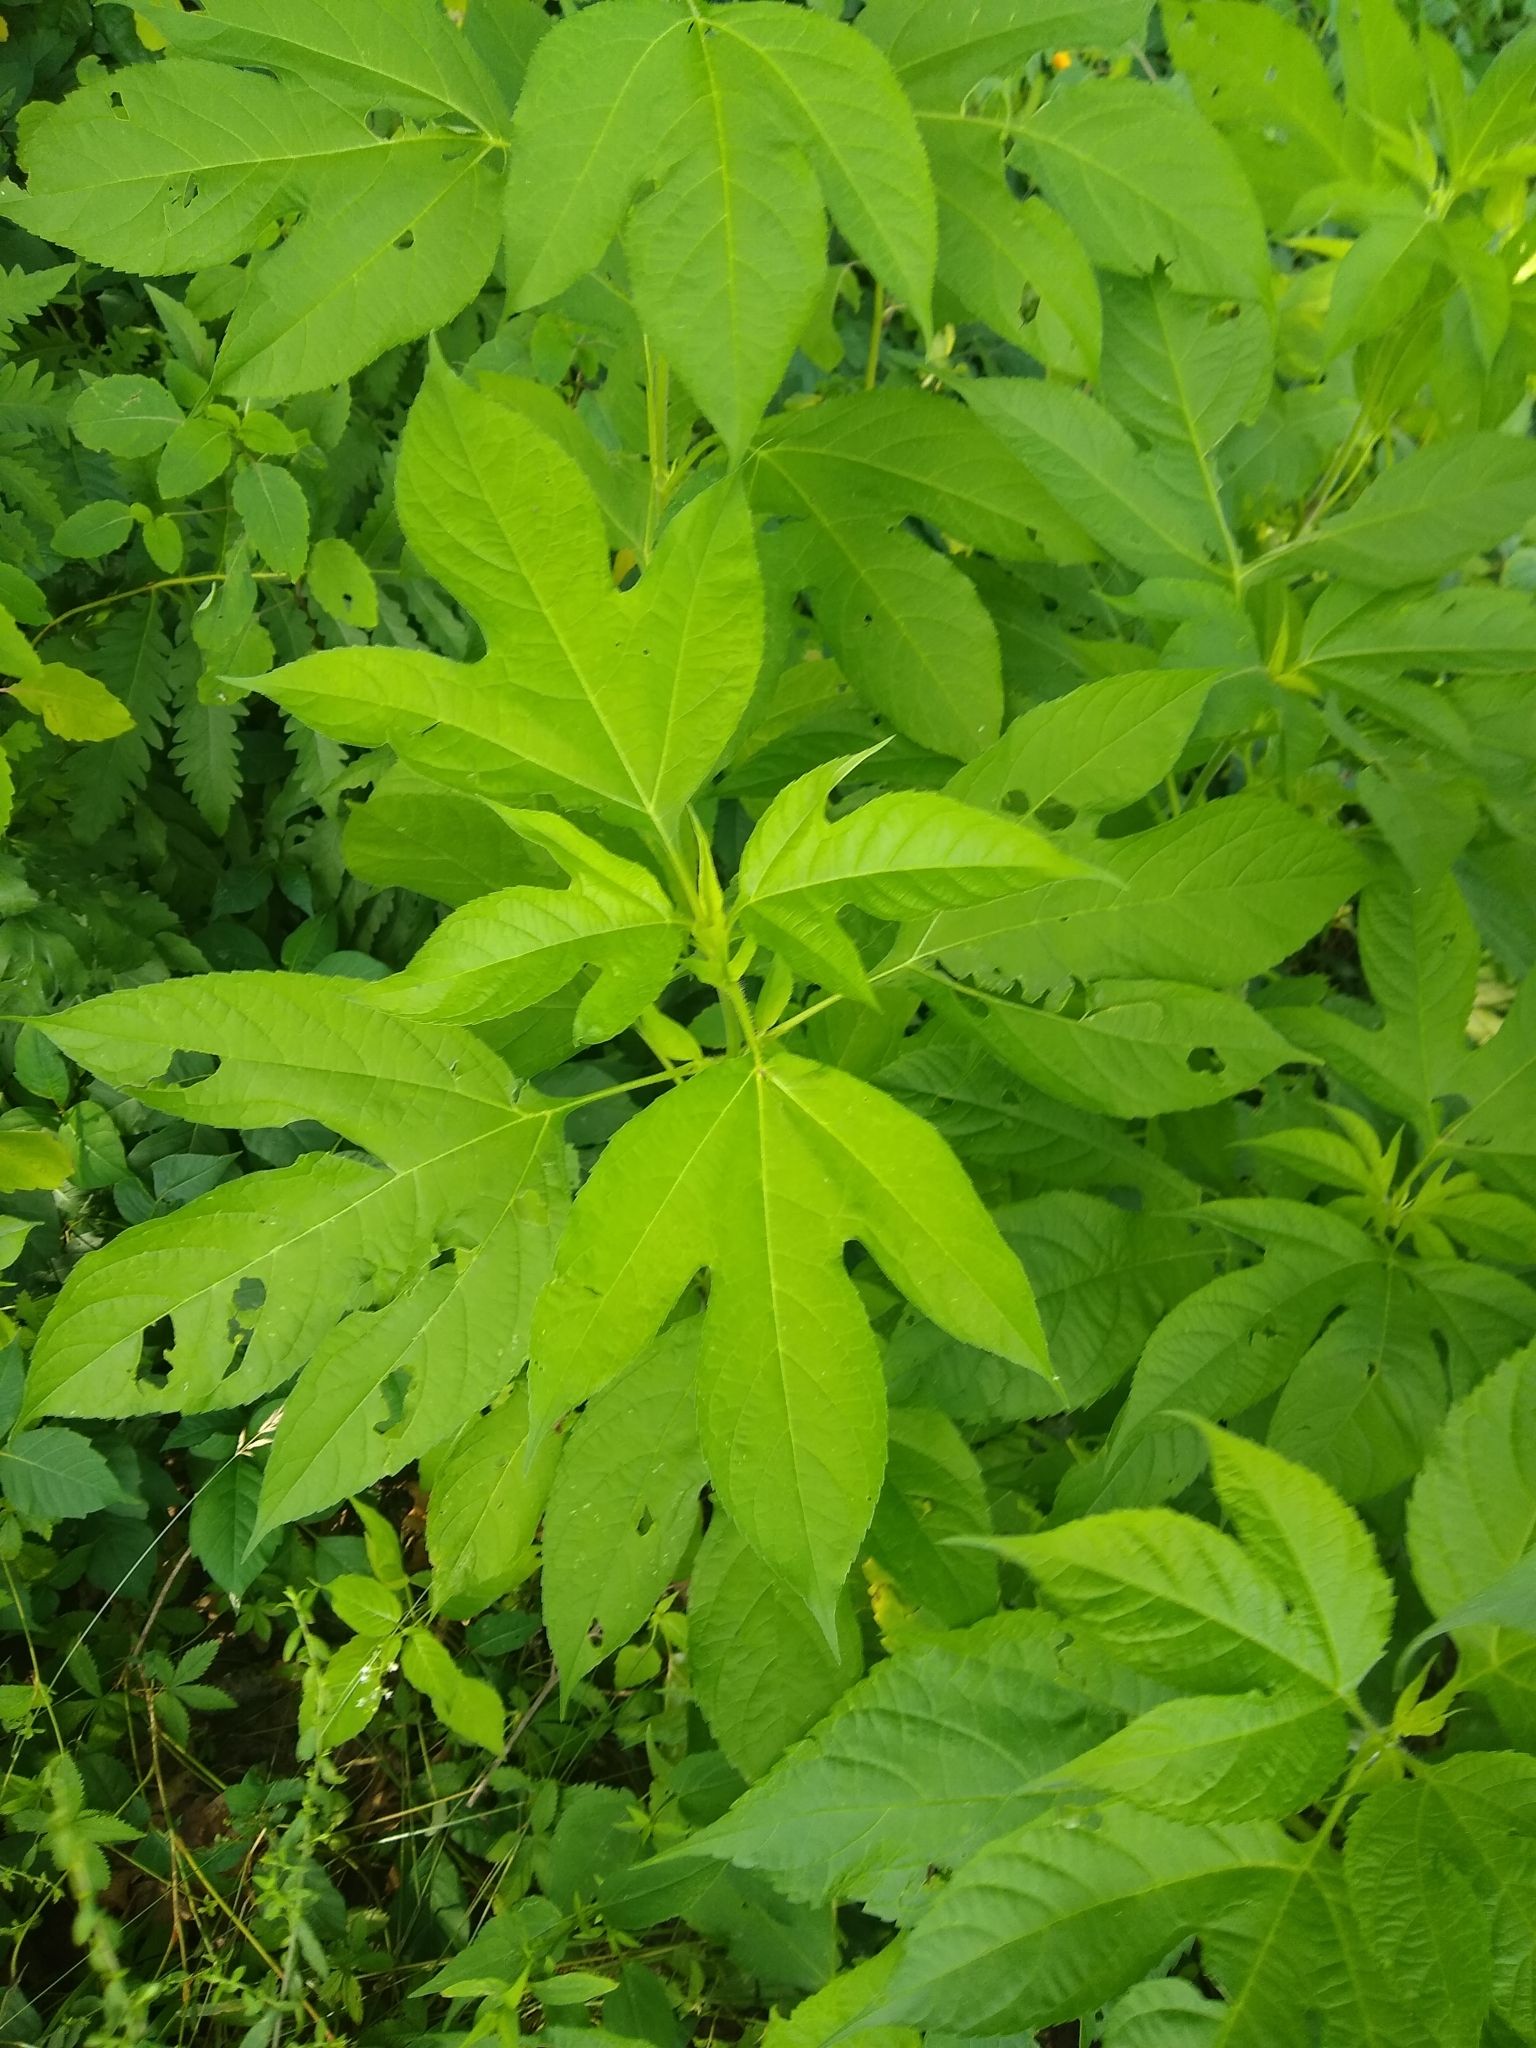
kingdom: Plantae
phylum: Tracheophyta
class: Magnoliopsida
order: Asterales
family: Asteraceae
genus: Ambrosia
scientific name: Ambrosia trifida
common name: Giant ragweed
